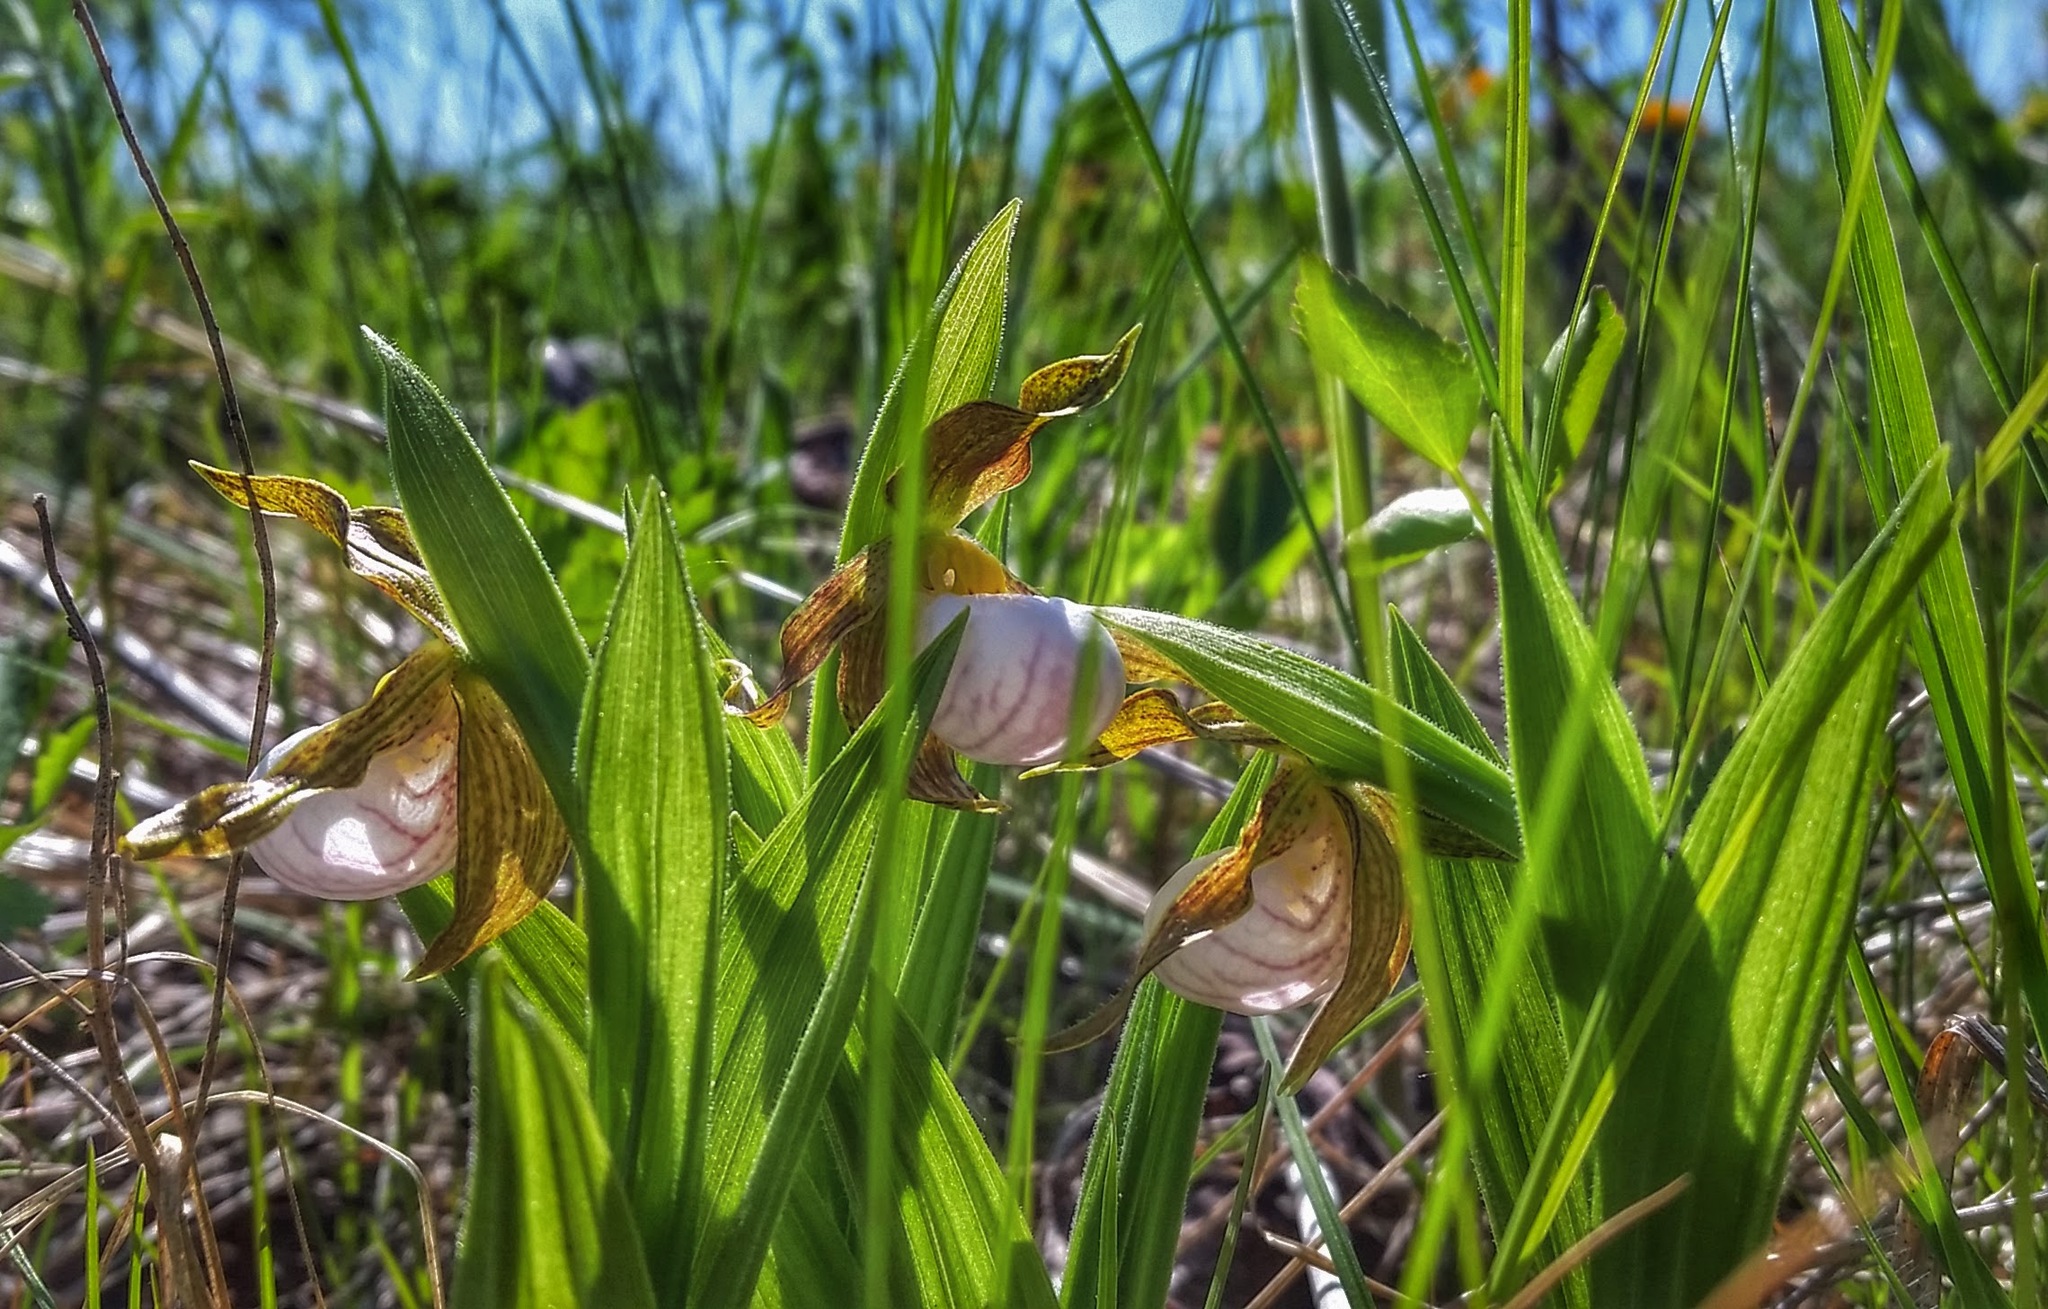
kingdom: Plantae
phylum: Tracheophyta
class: Liliopsida
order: Asparagales
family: Orchidaceae
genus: Cypripedium
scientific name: Cypripedium candidum
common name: White lady's-slipper
